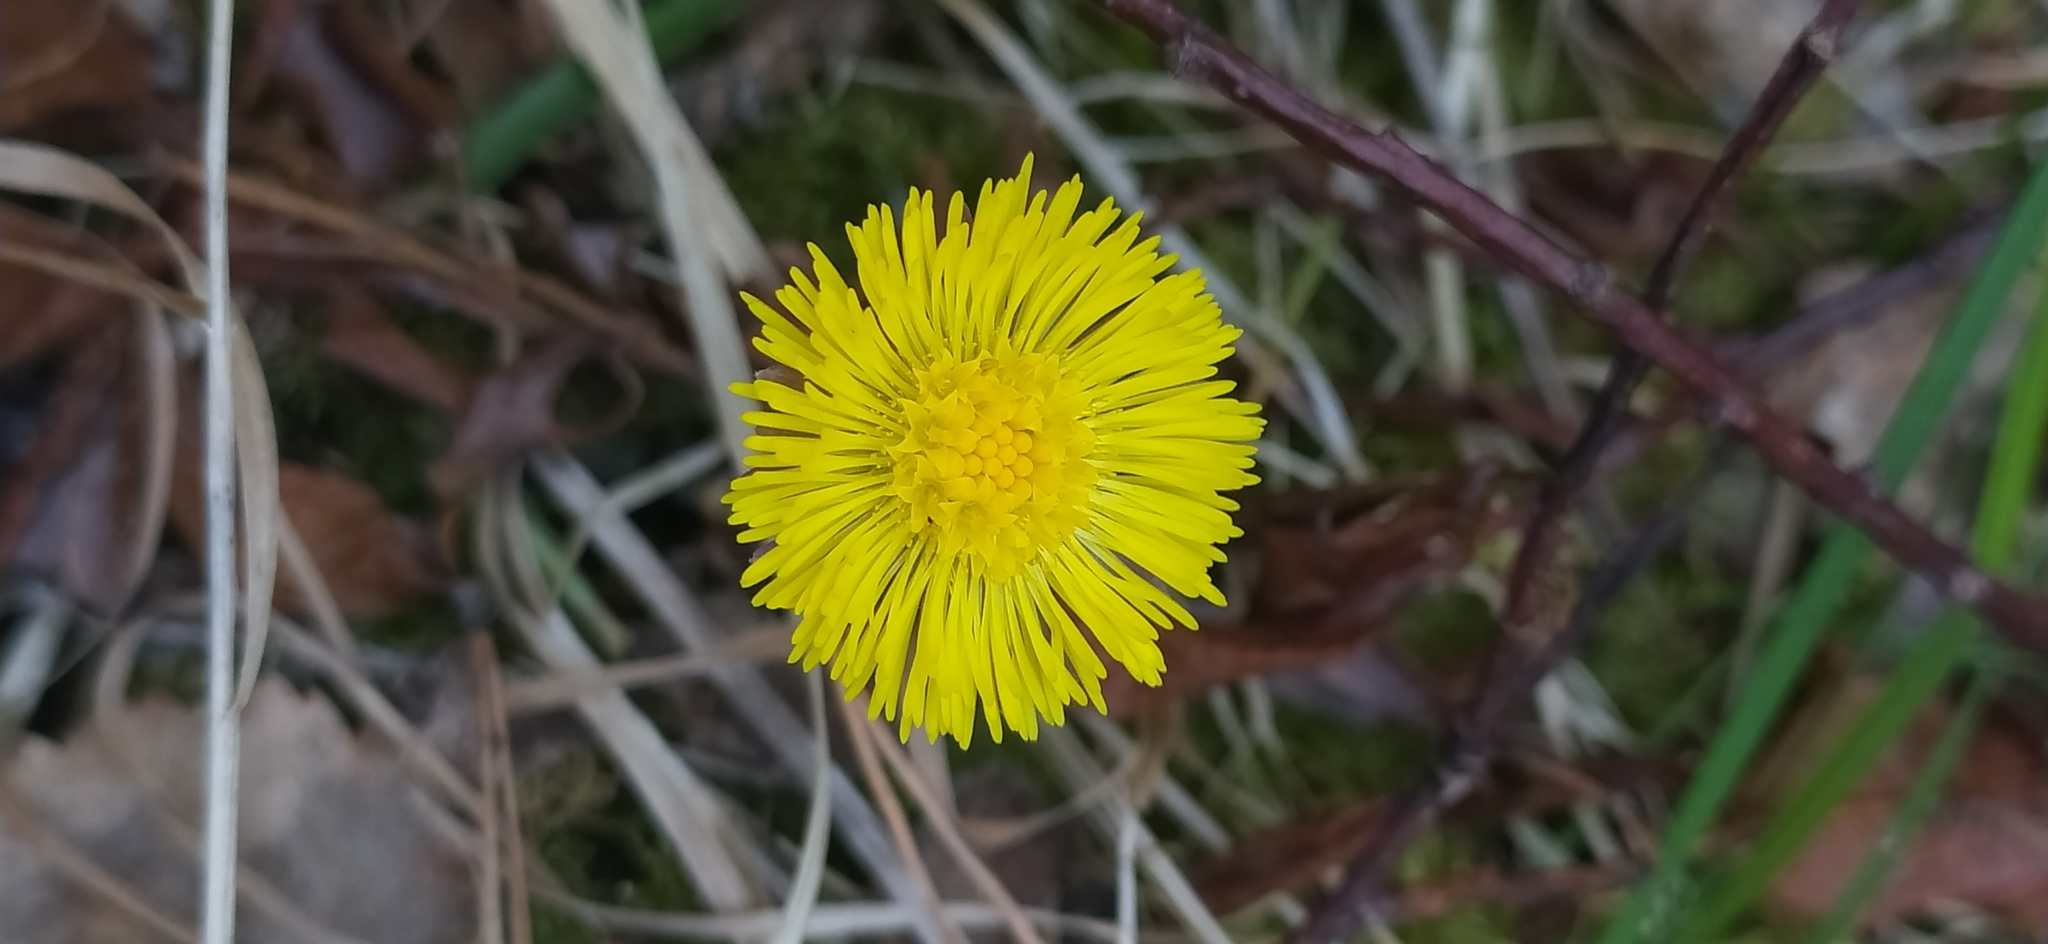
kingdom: Plantae
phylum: Tracheophyta
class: Magnoliopsida
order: Asterales
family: Asteraceae
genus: Tussilago
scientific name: Tussilago farfara
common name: Coltsfoot
